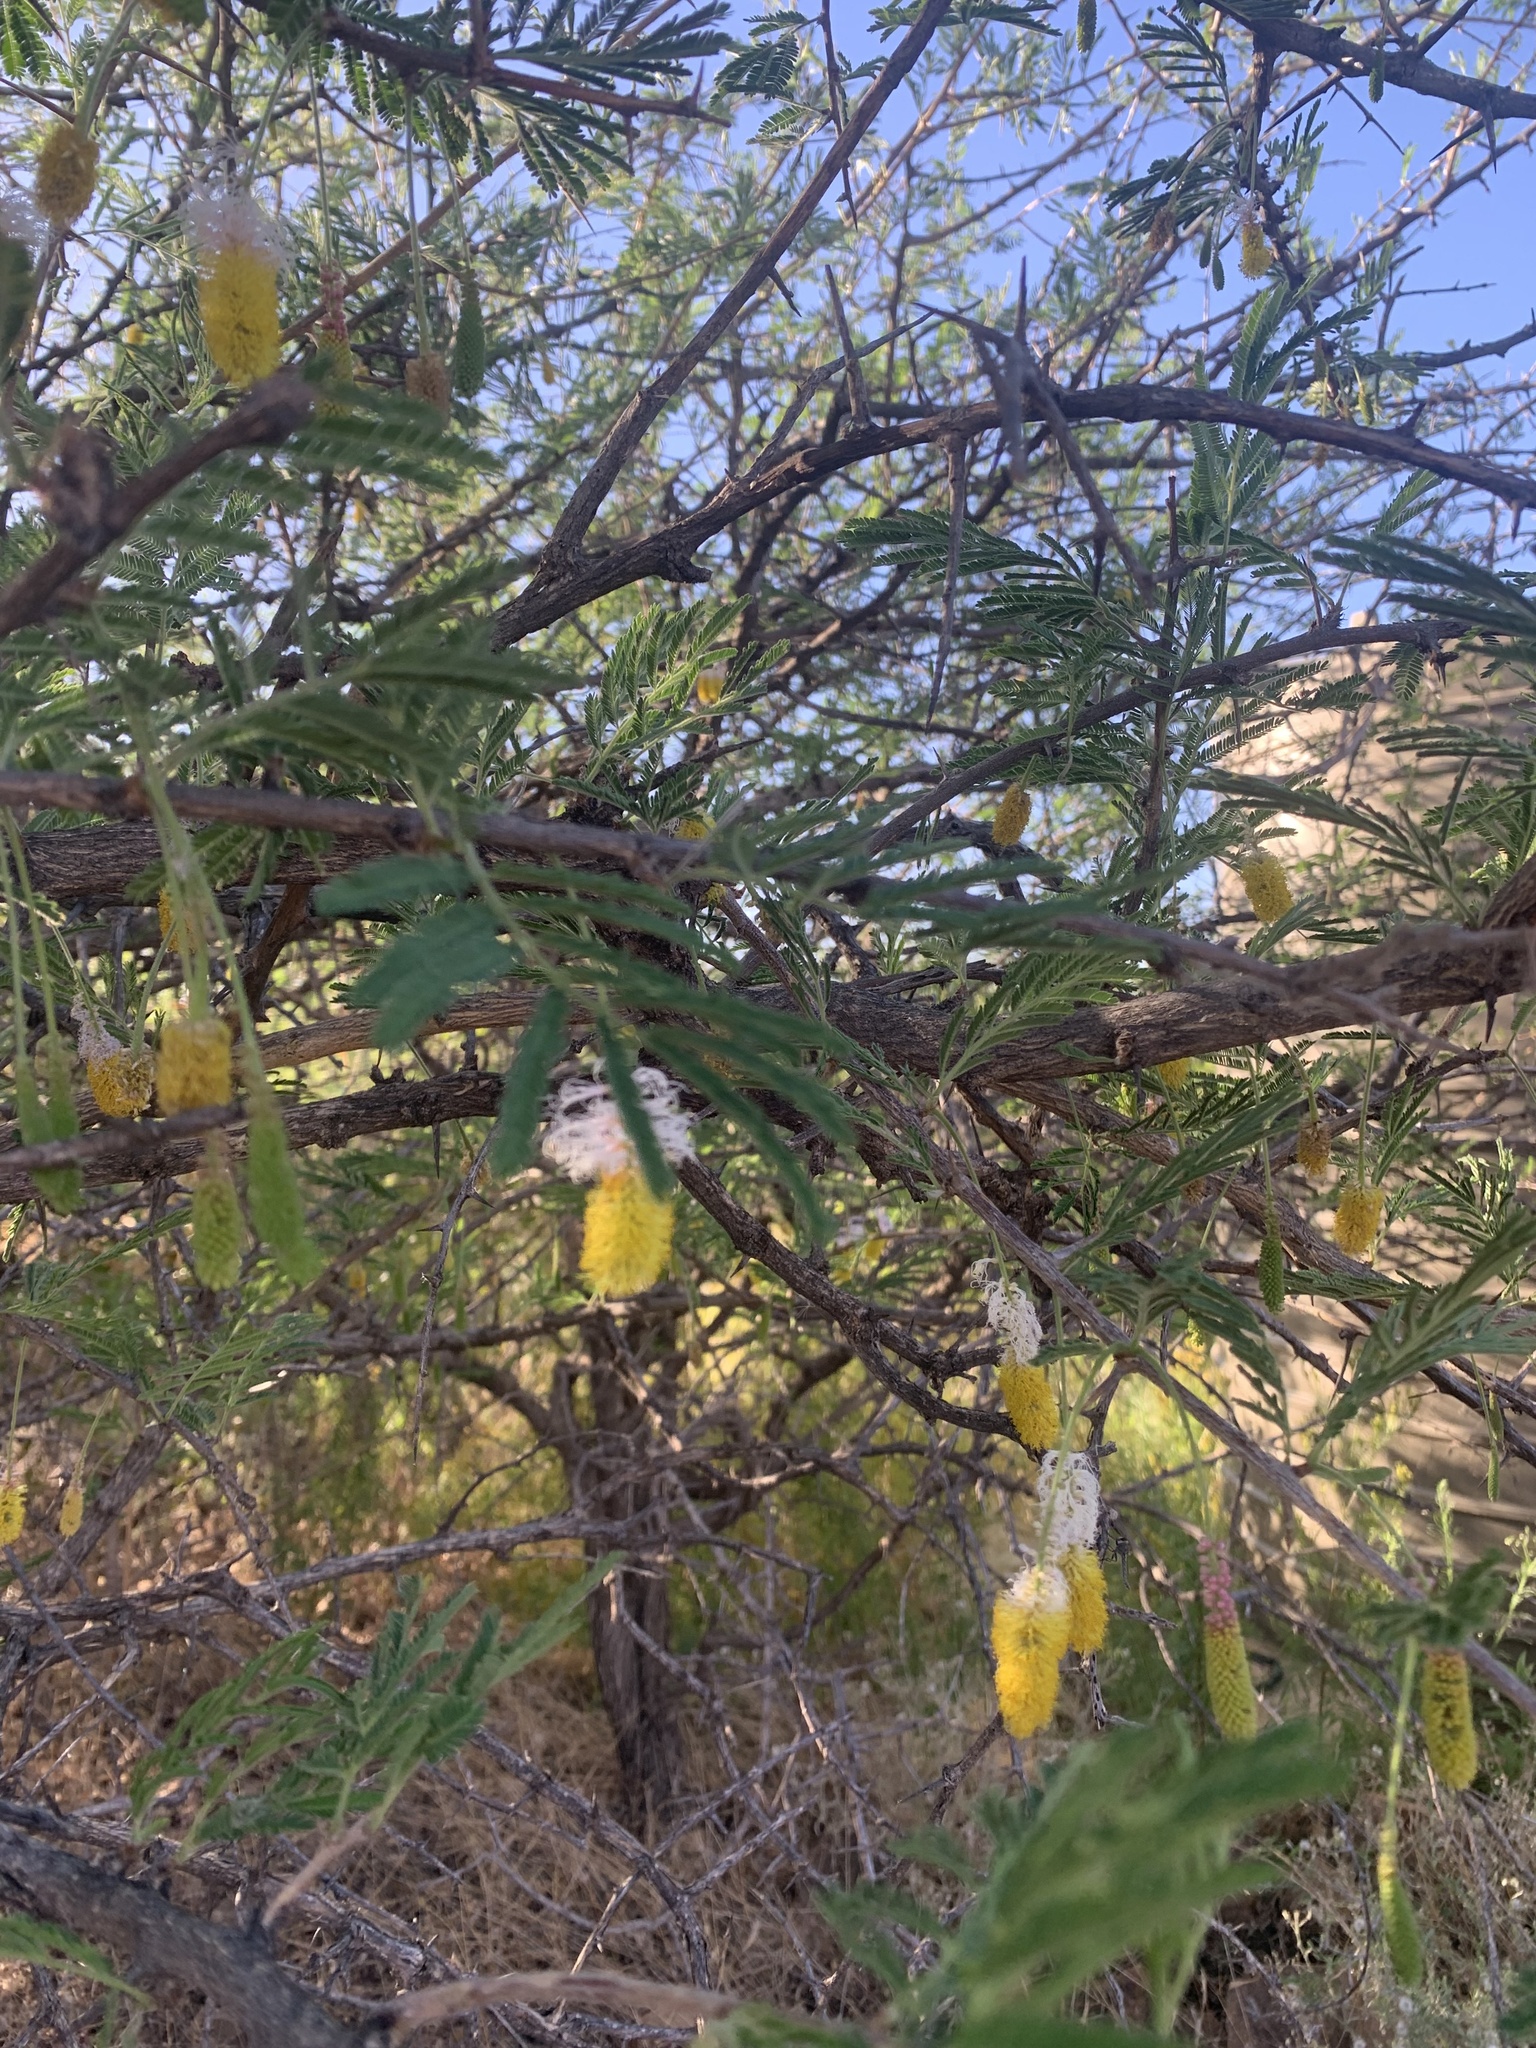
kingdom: Plantae
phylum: Tracheophyta
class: Magnoliopsida
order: Fabales
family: Fabaceae
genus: Dichrostachys
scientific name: Dichrostachys cinerea
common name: Sicklebush
